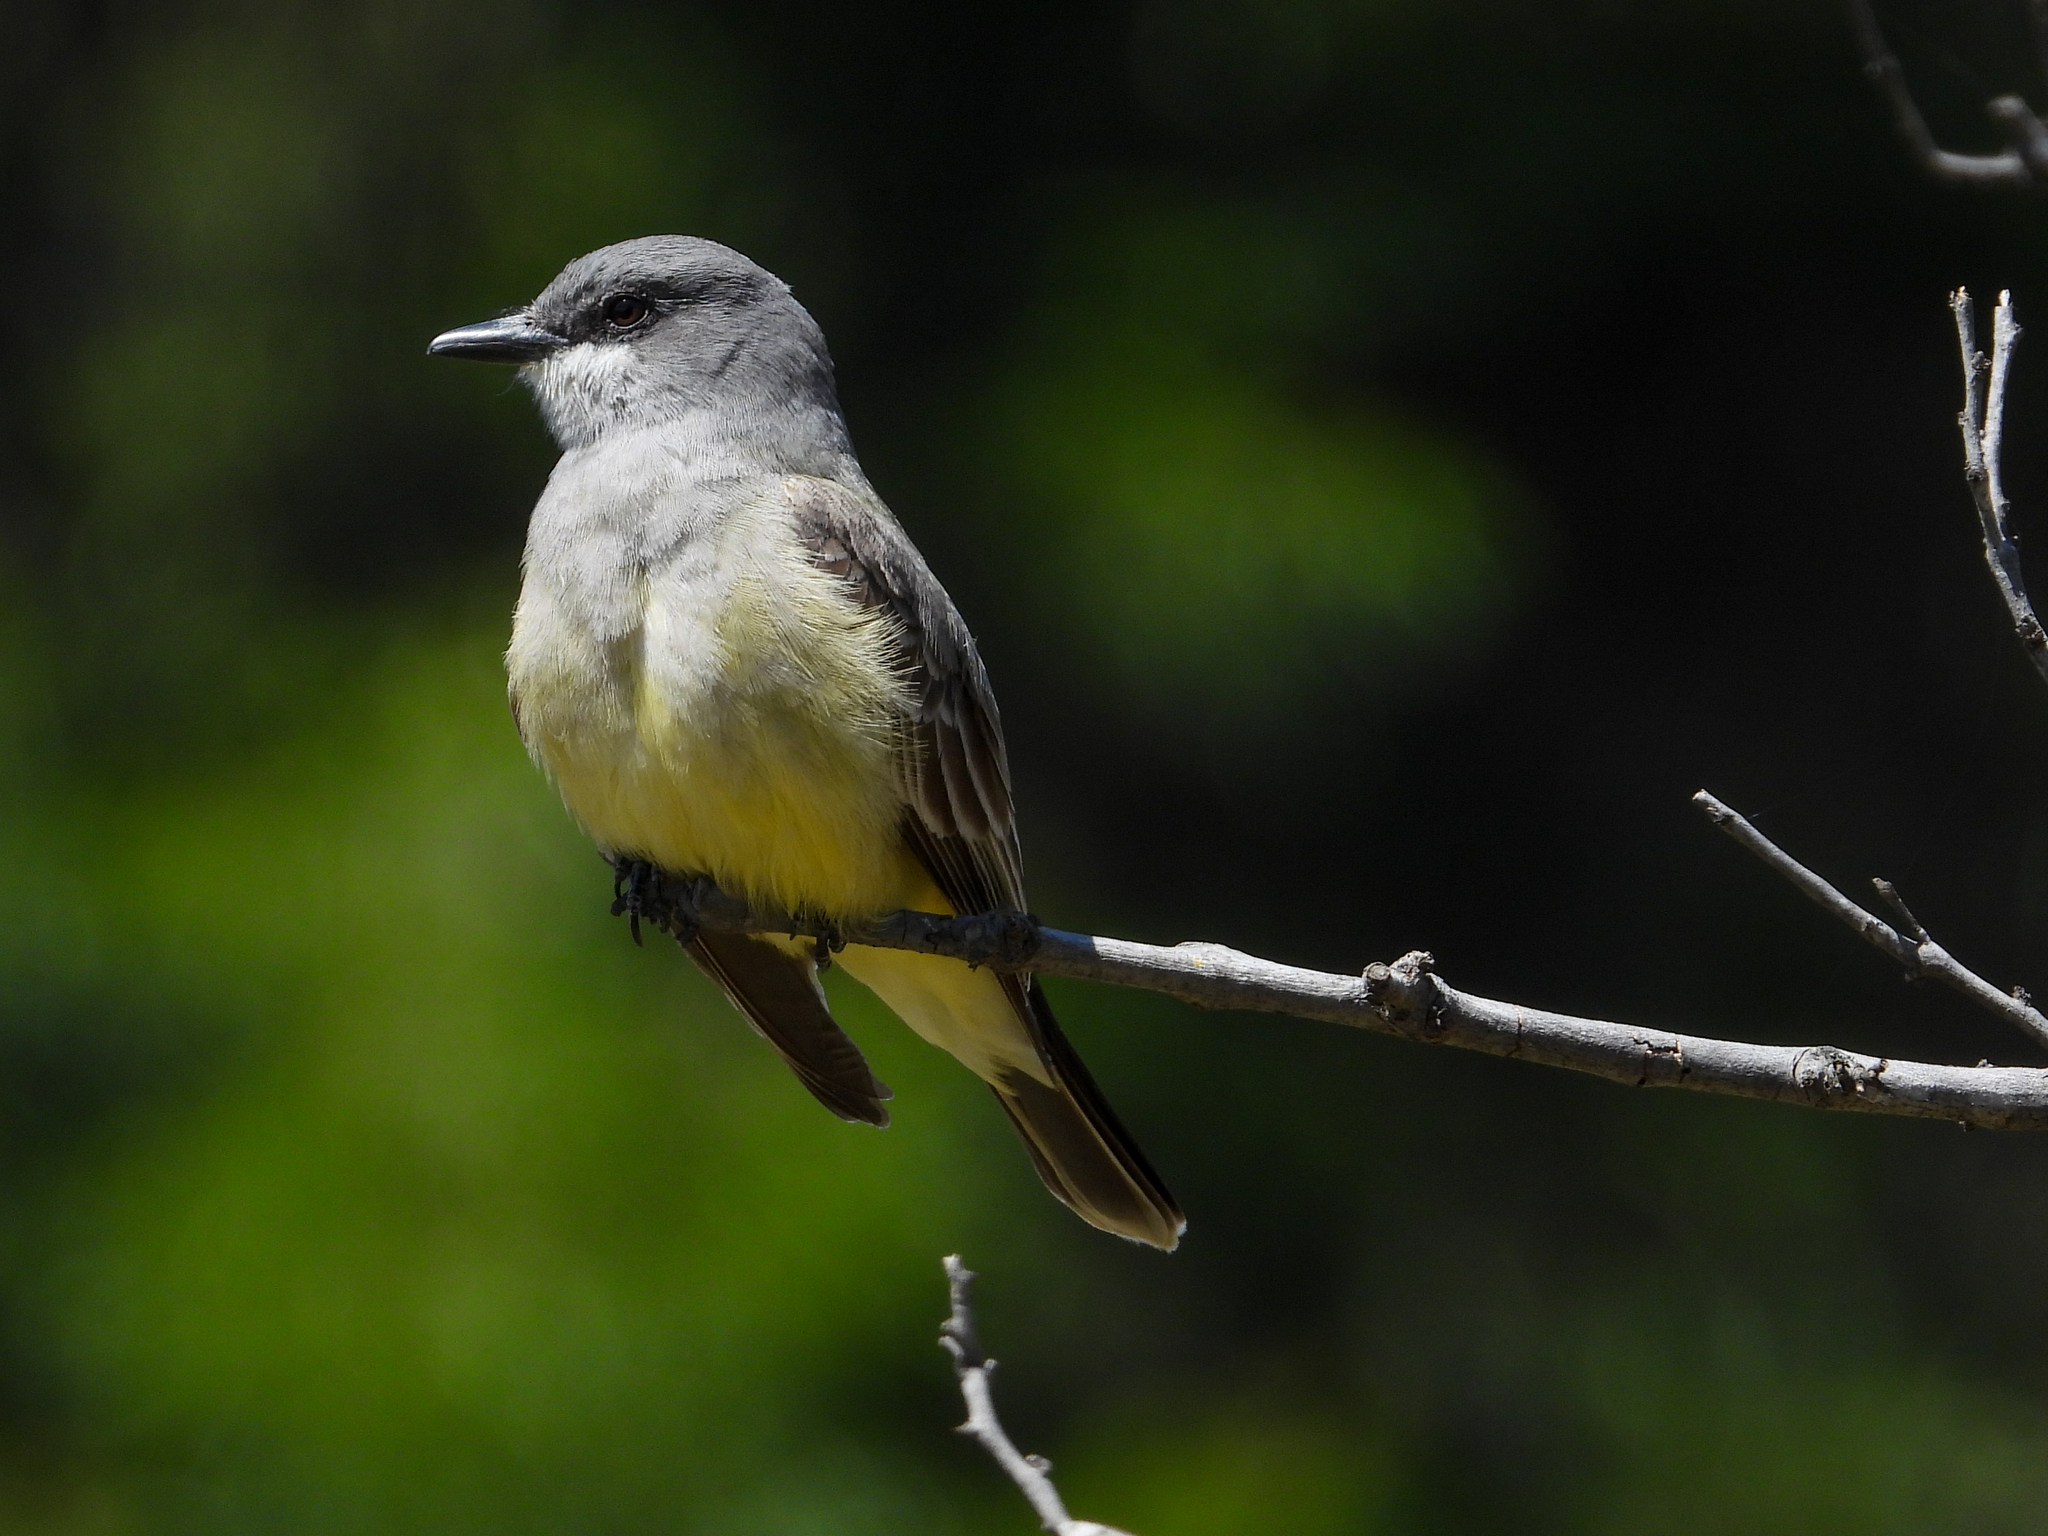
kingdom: Animalia
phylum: Chordata
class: Aves
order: Passeriformes
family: Tyrannidae
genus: Tyrannus
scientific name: Tyrannus vociferans
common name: Cassin's kingbird
